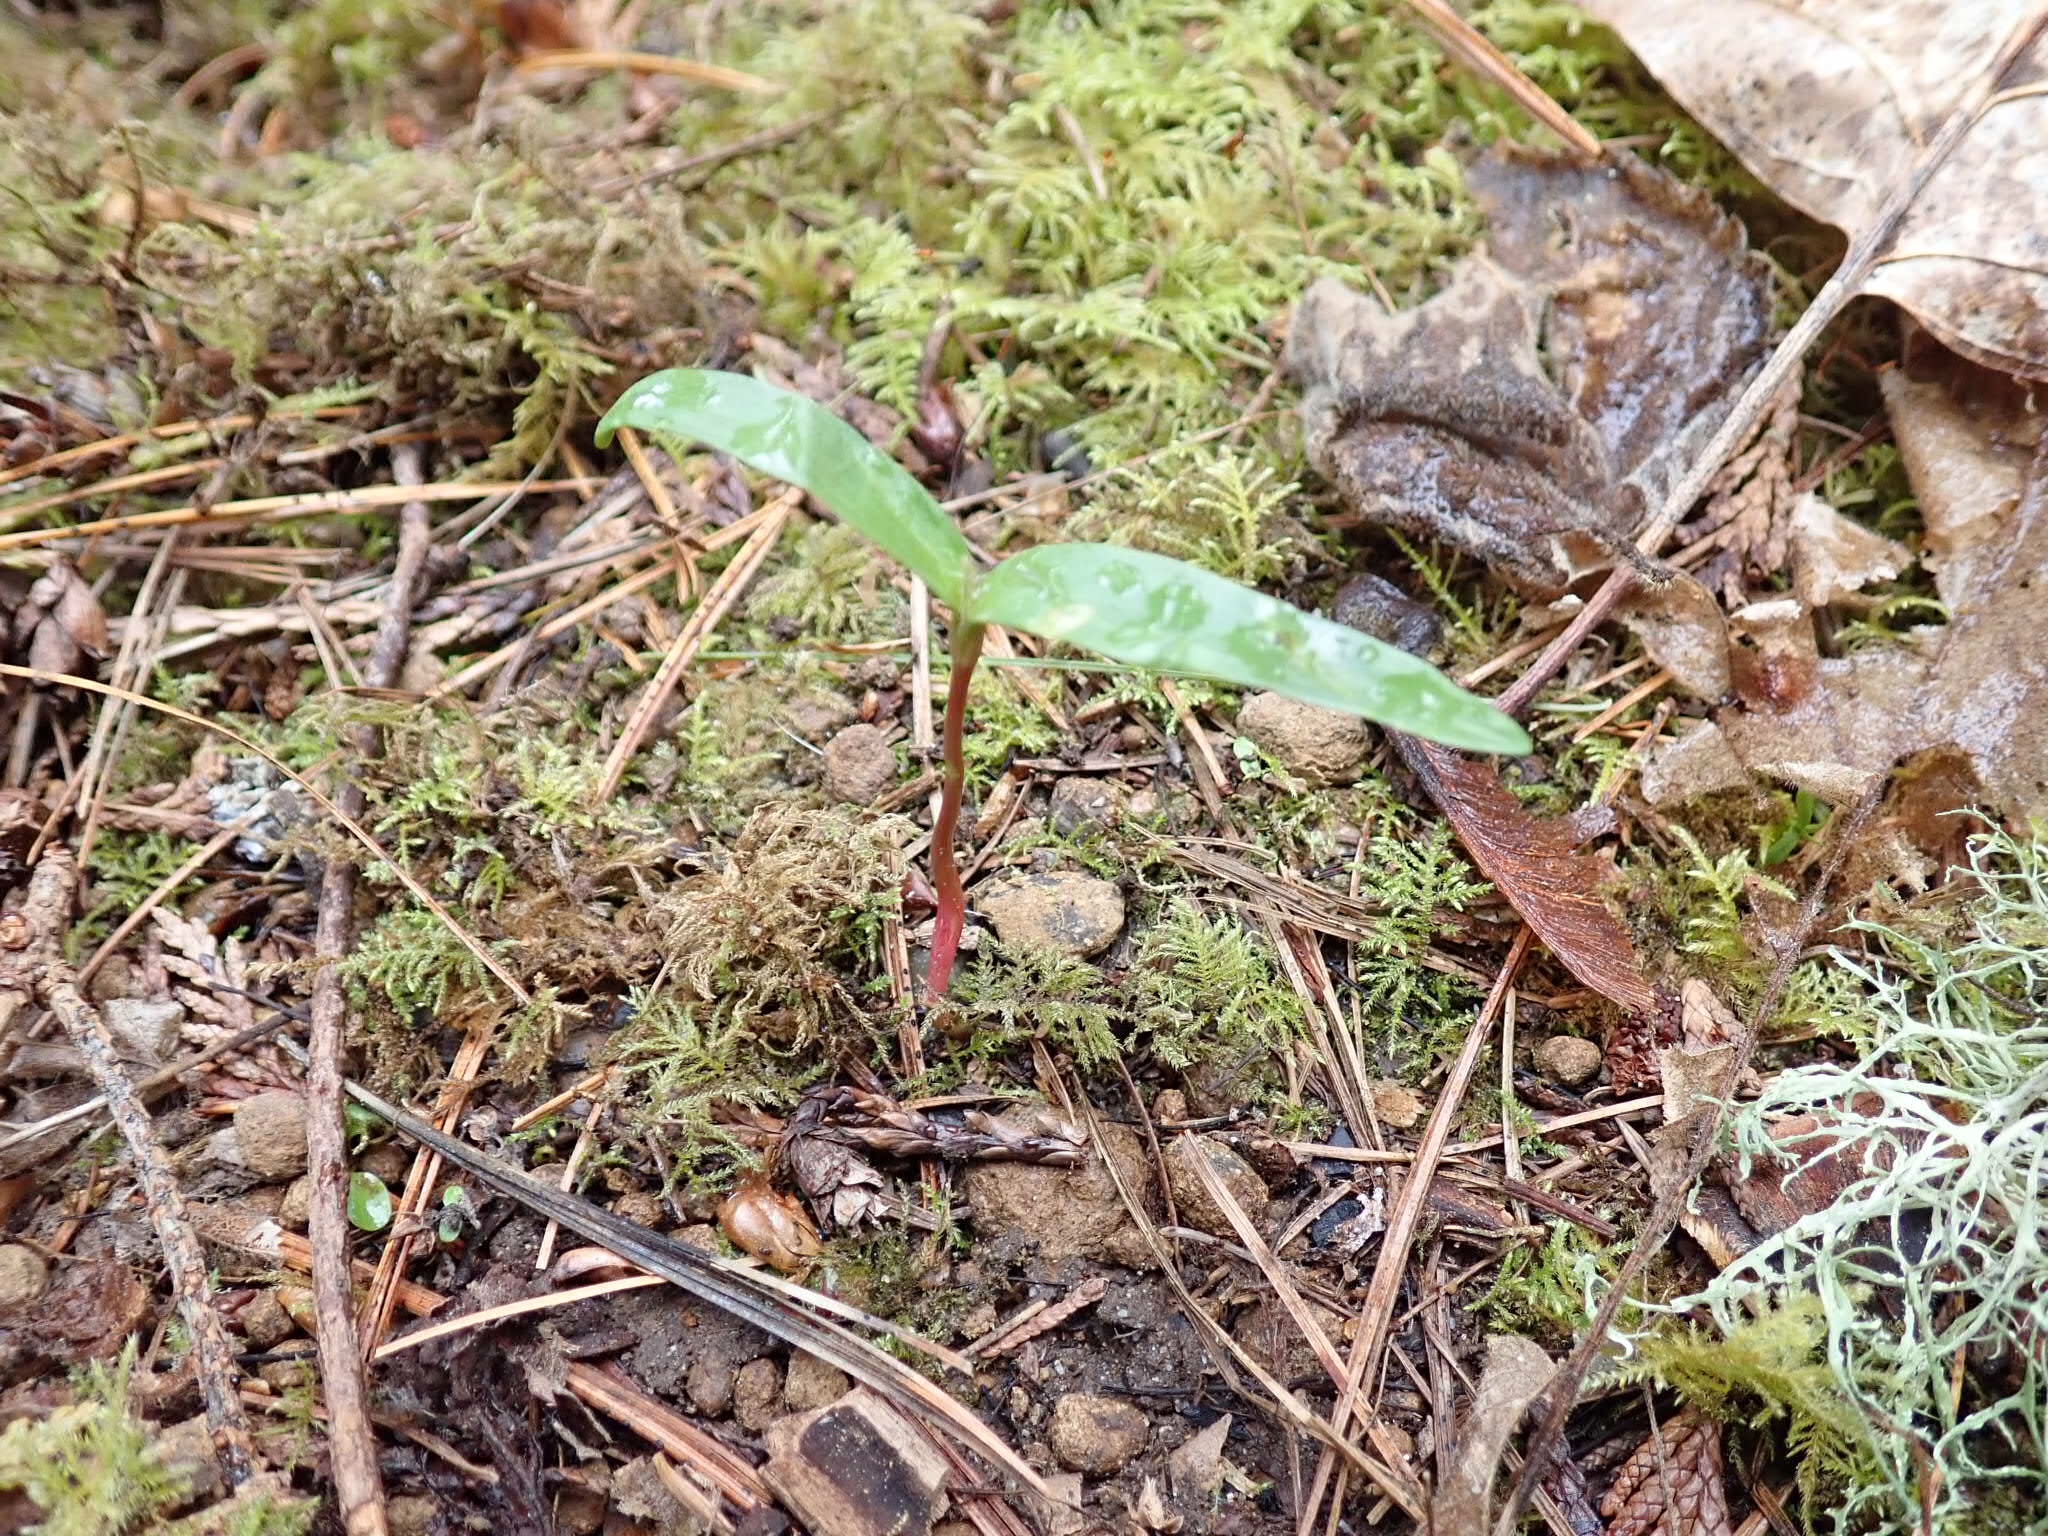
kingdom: Plantae
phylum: Tracheophyta
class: Magnoliopsida
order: Sapindales
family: Sapindaceae
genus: Acer
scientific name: Acer macrophyllum
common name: Oregon maple
